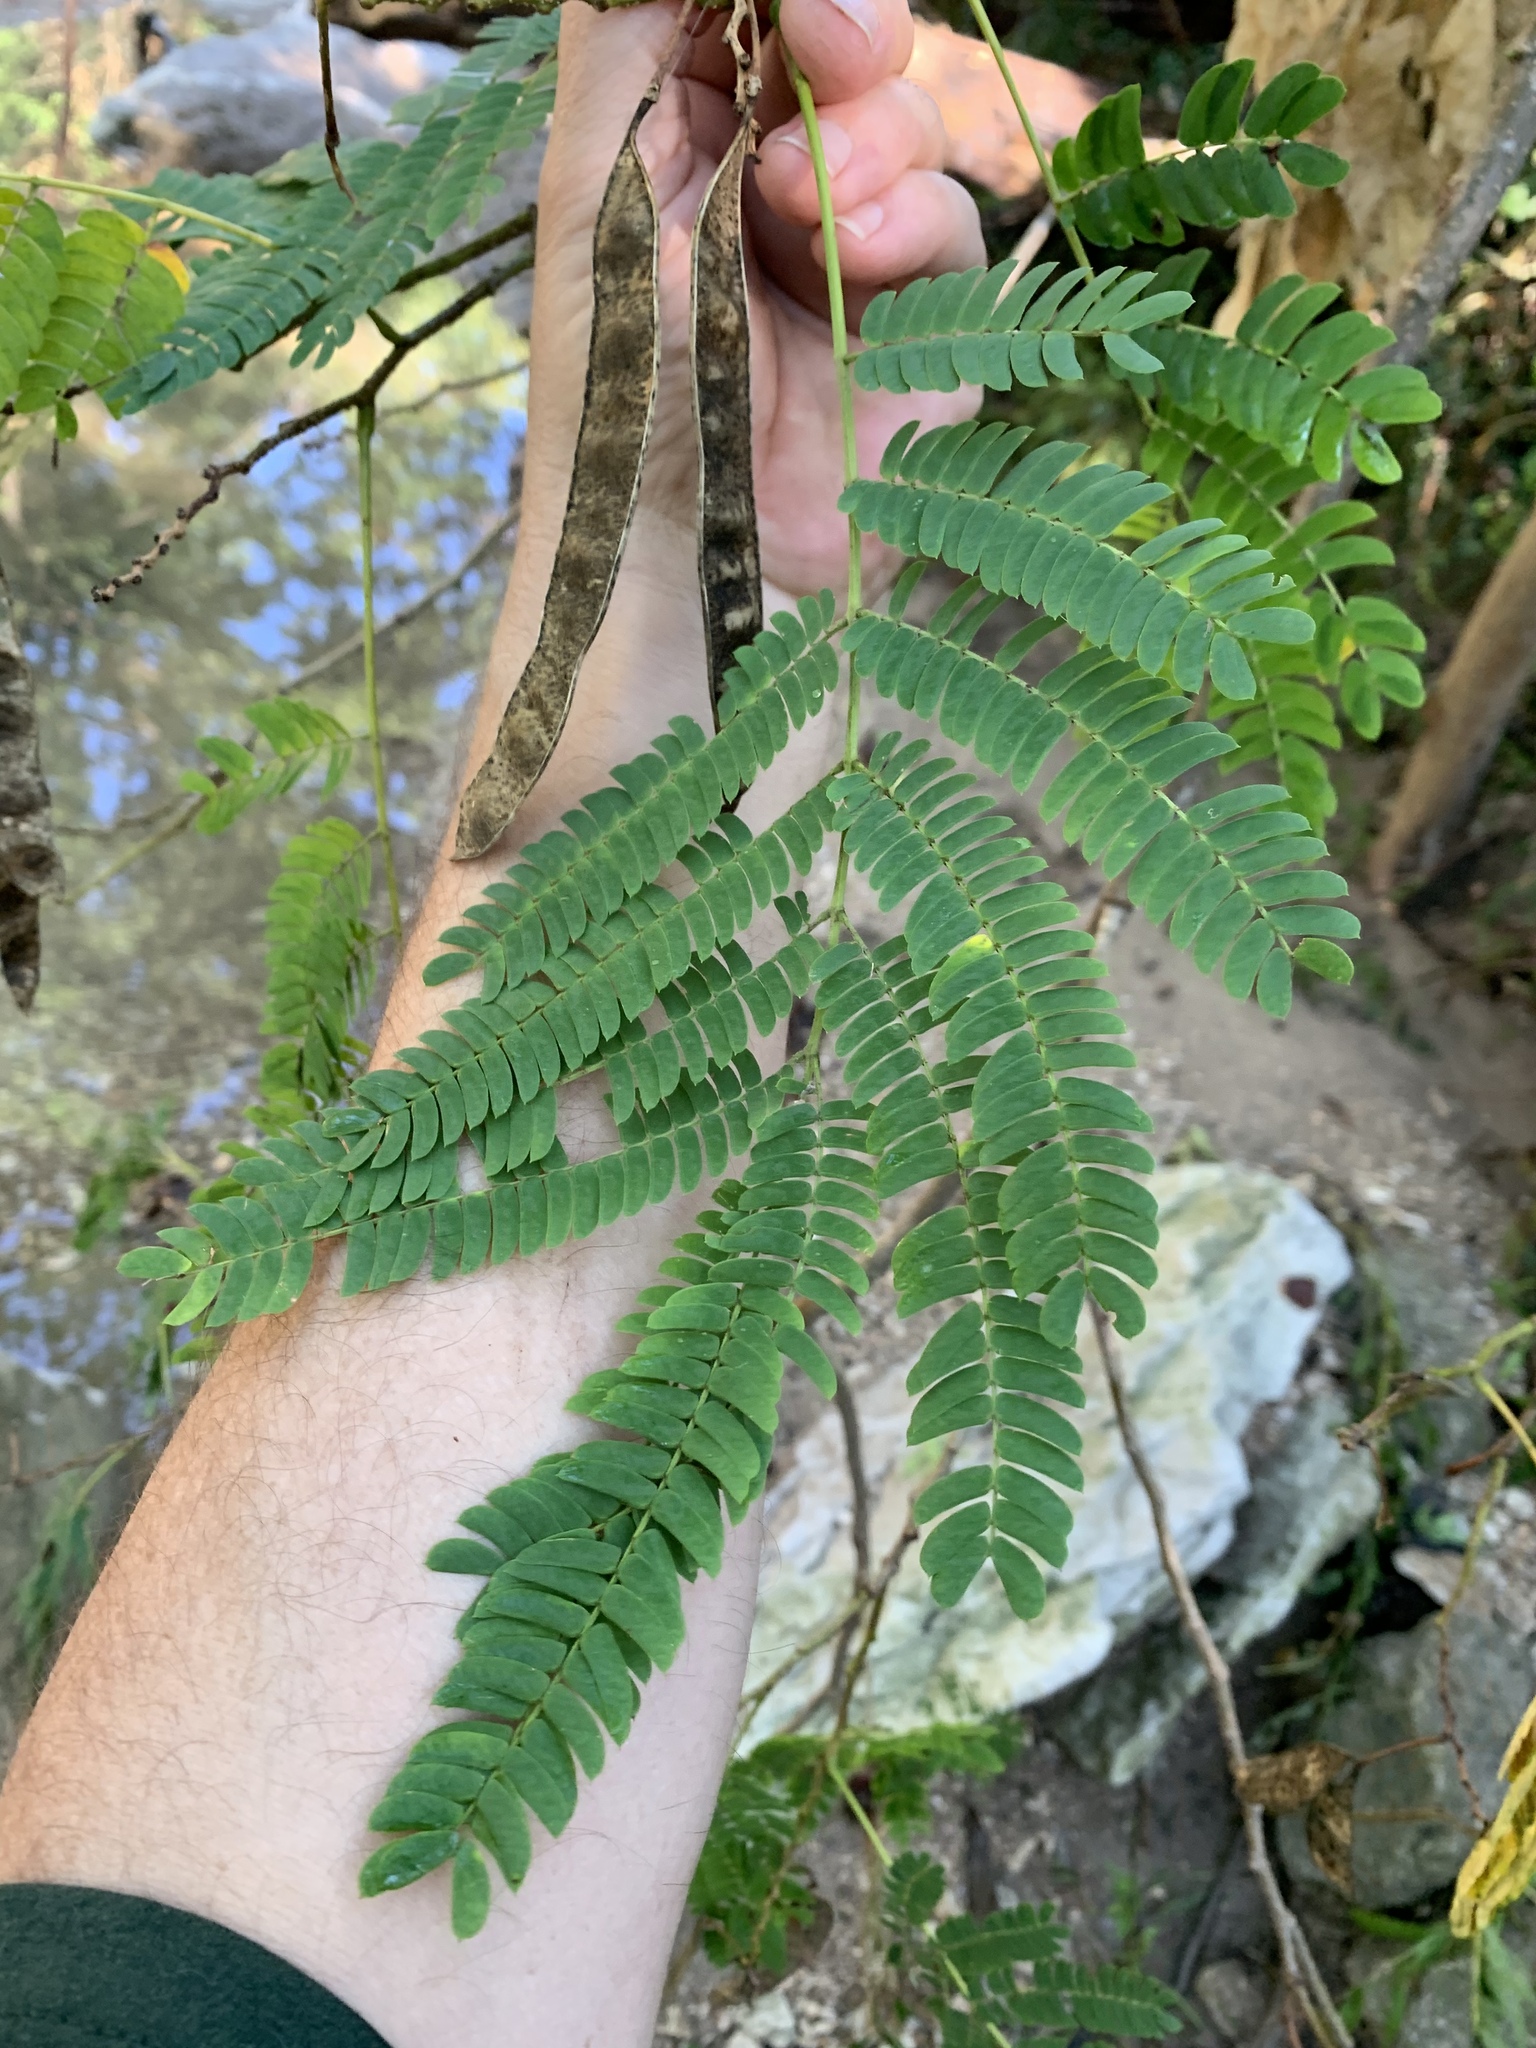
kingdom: Plantae
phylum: Tracheophyta
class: Magnoliopsida
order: Fabales
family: Fabaceae
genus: Albizia
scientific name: Albizia julibrissin
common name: Silktree
